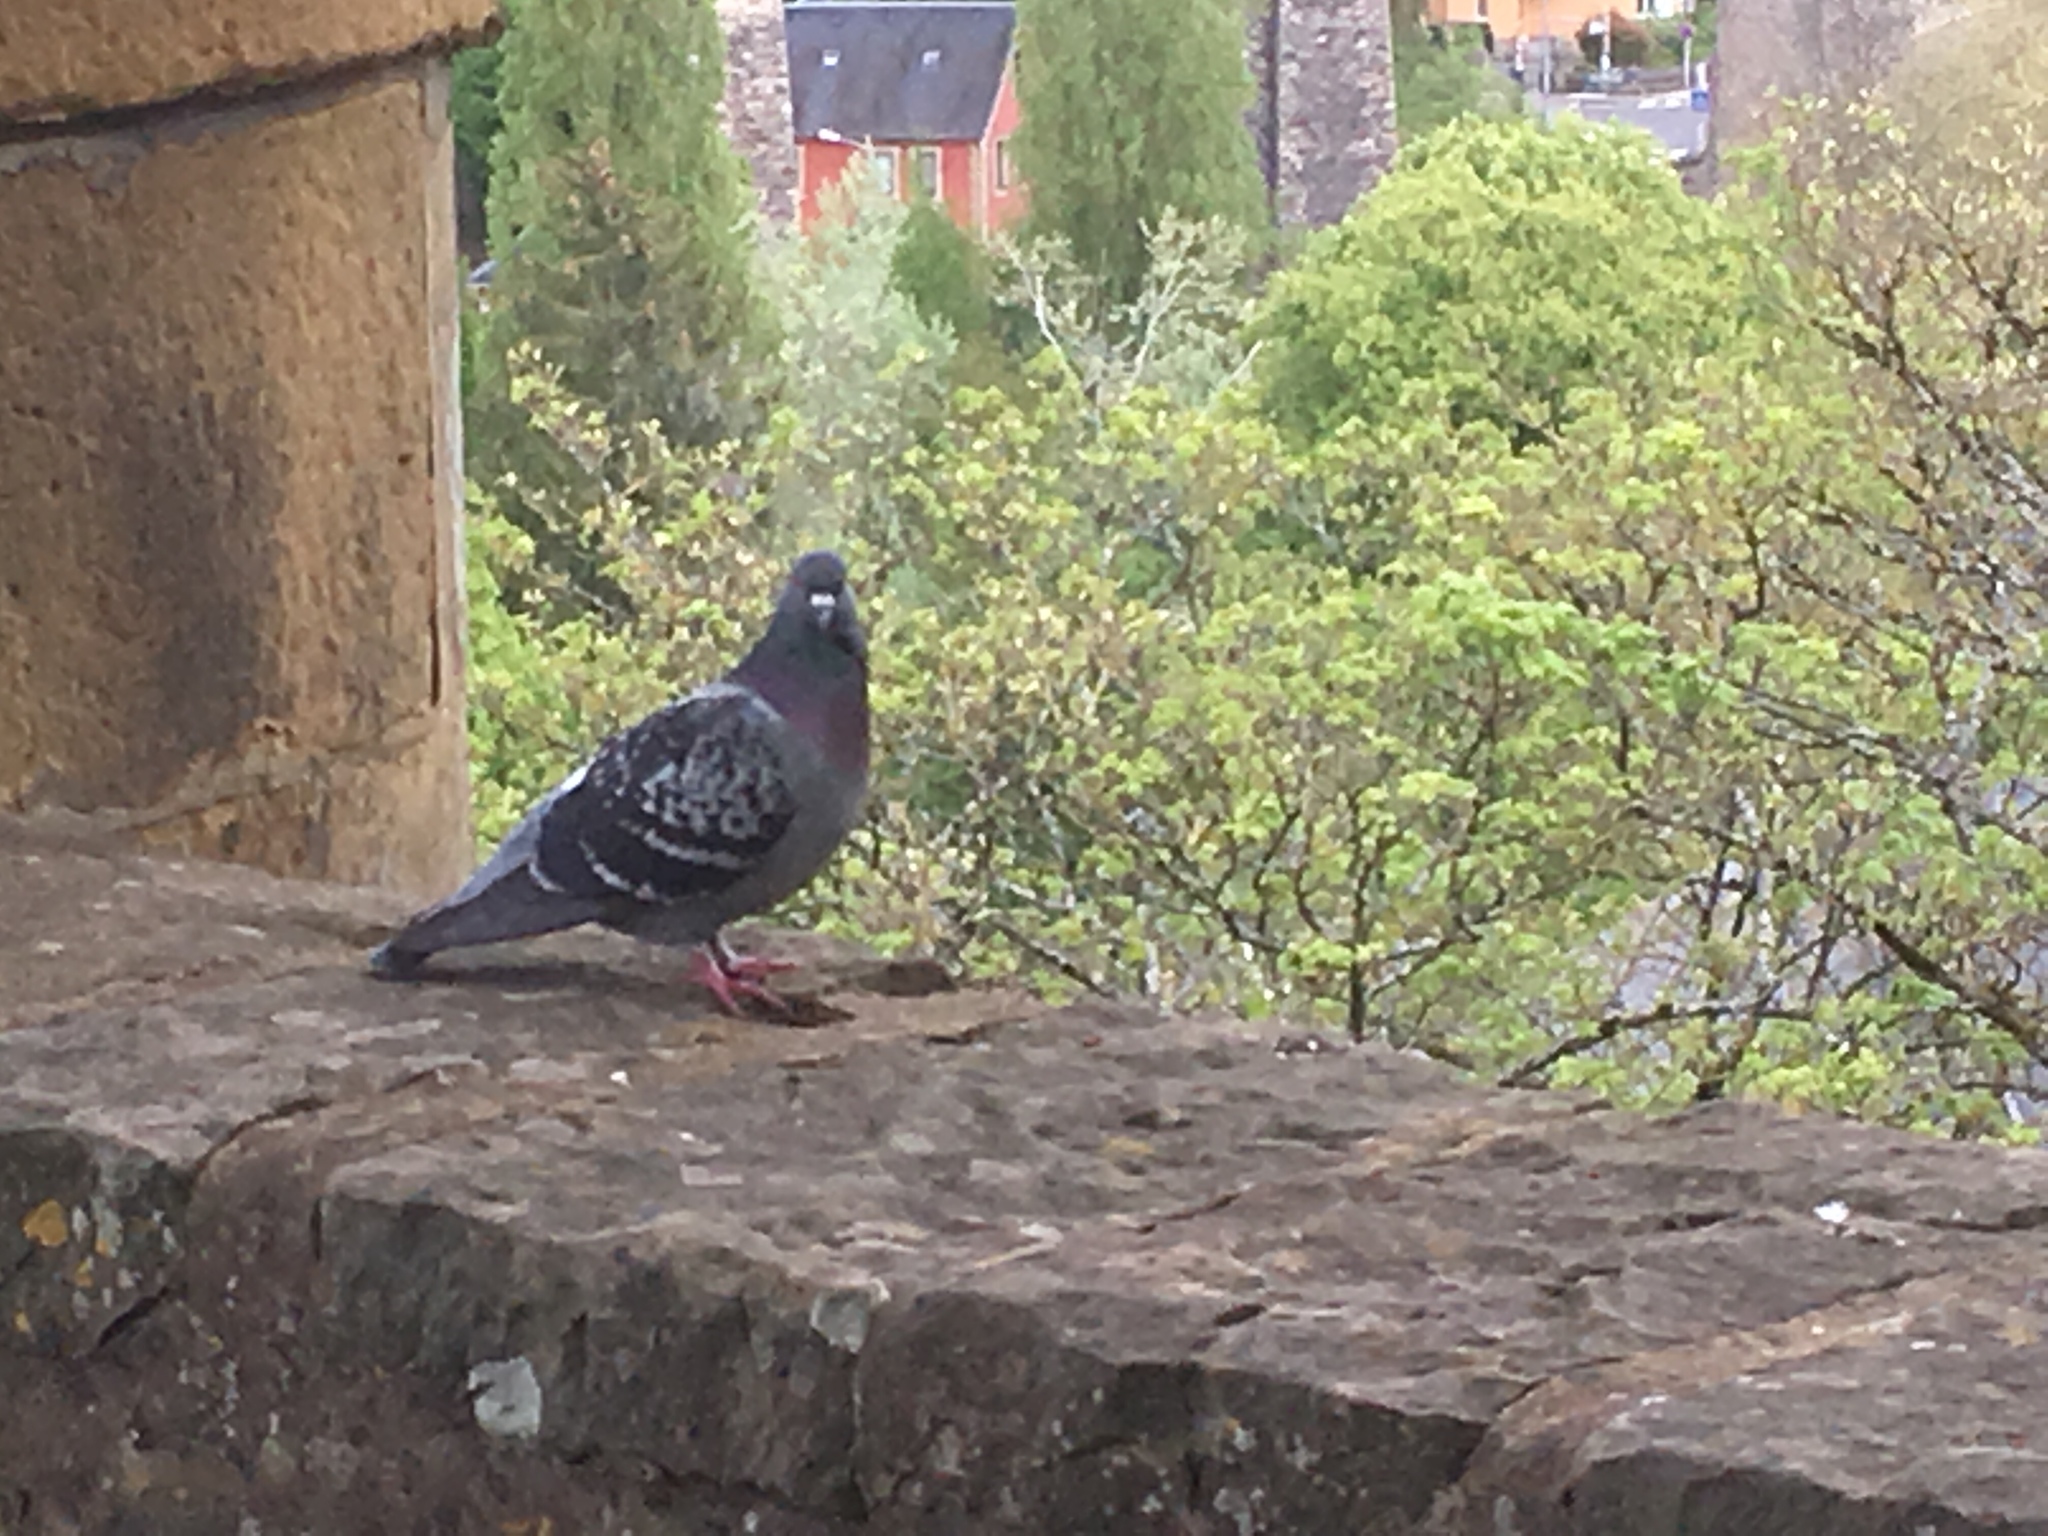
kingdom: Animalia
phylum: Chordata
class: Aves
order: Columbiformes
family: Columbidae
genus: Columba
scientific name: Columba livia
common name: Rock pigeon
